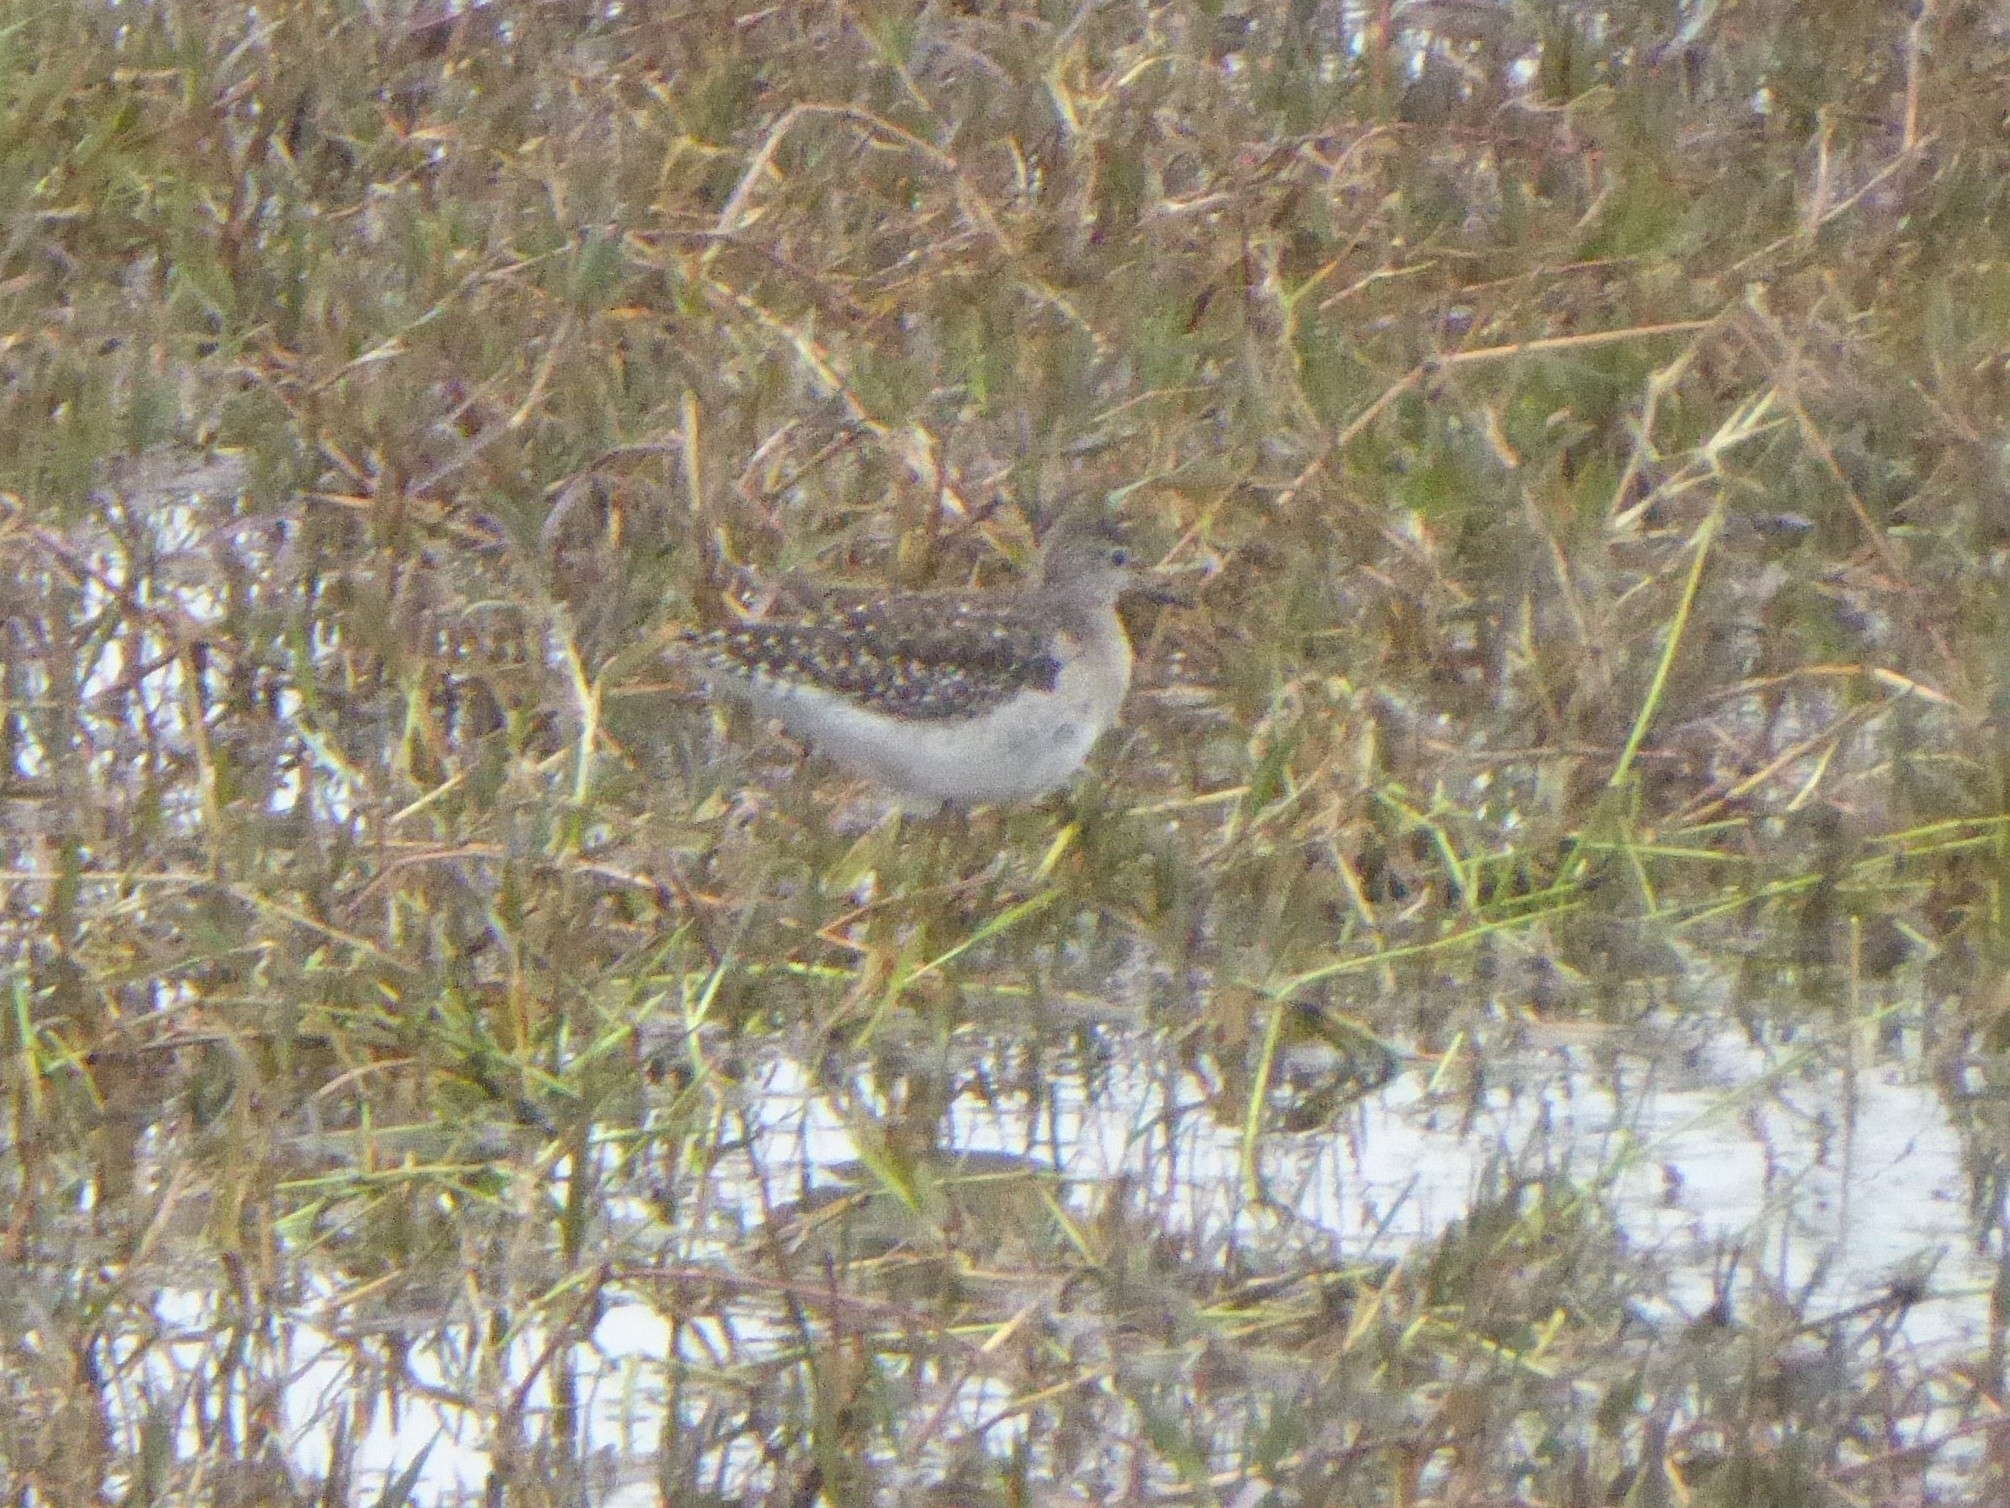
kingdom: Animalia
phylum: Chordata
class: Aves
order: Charadriiformes
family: Scolopacidae
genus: Tringa
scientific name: Tringa glareola
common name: Wood sandpiper
